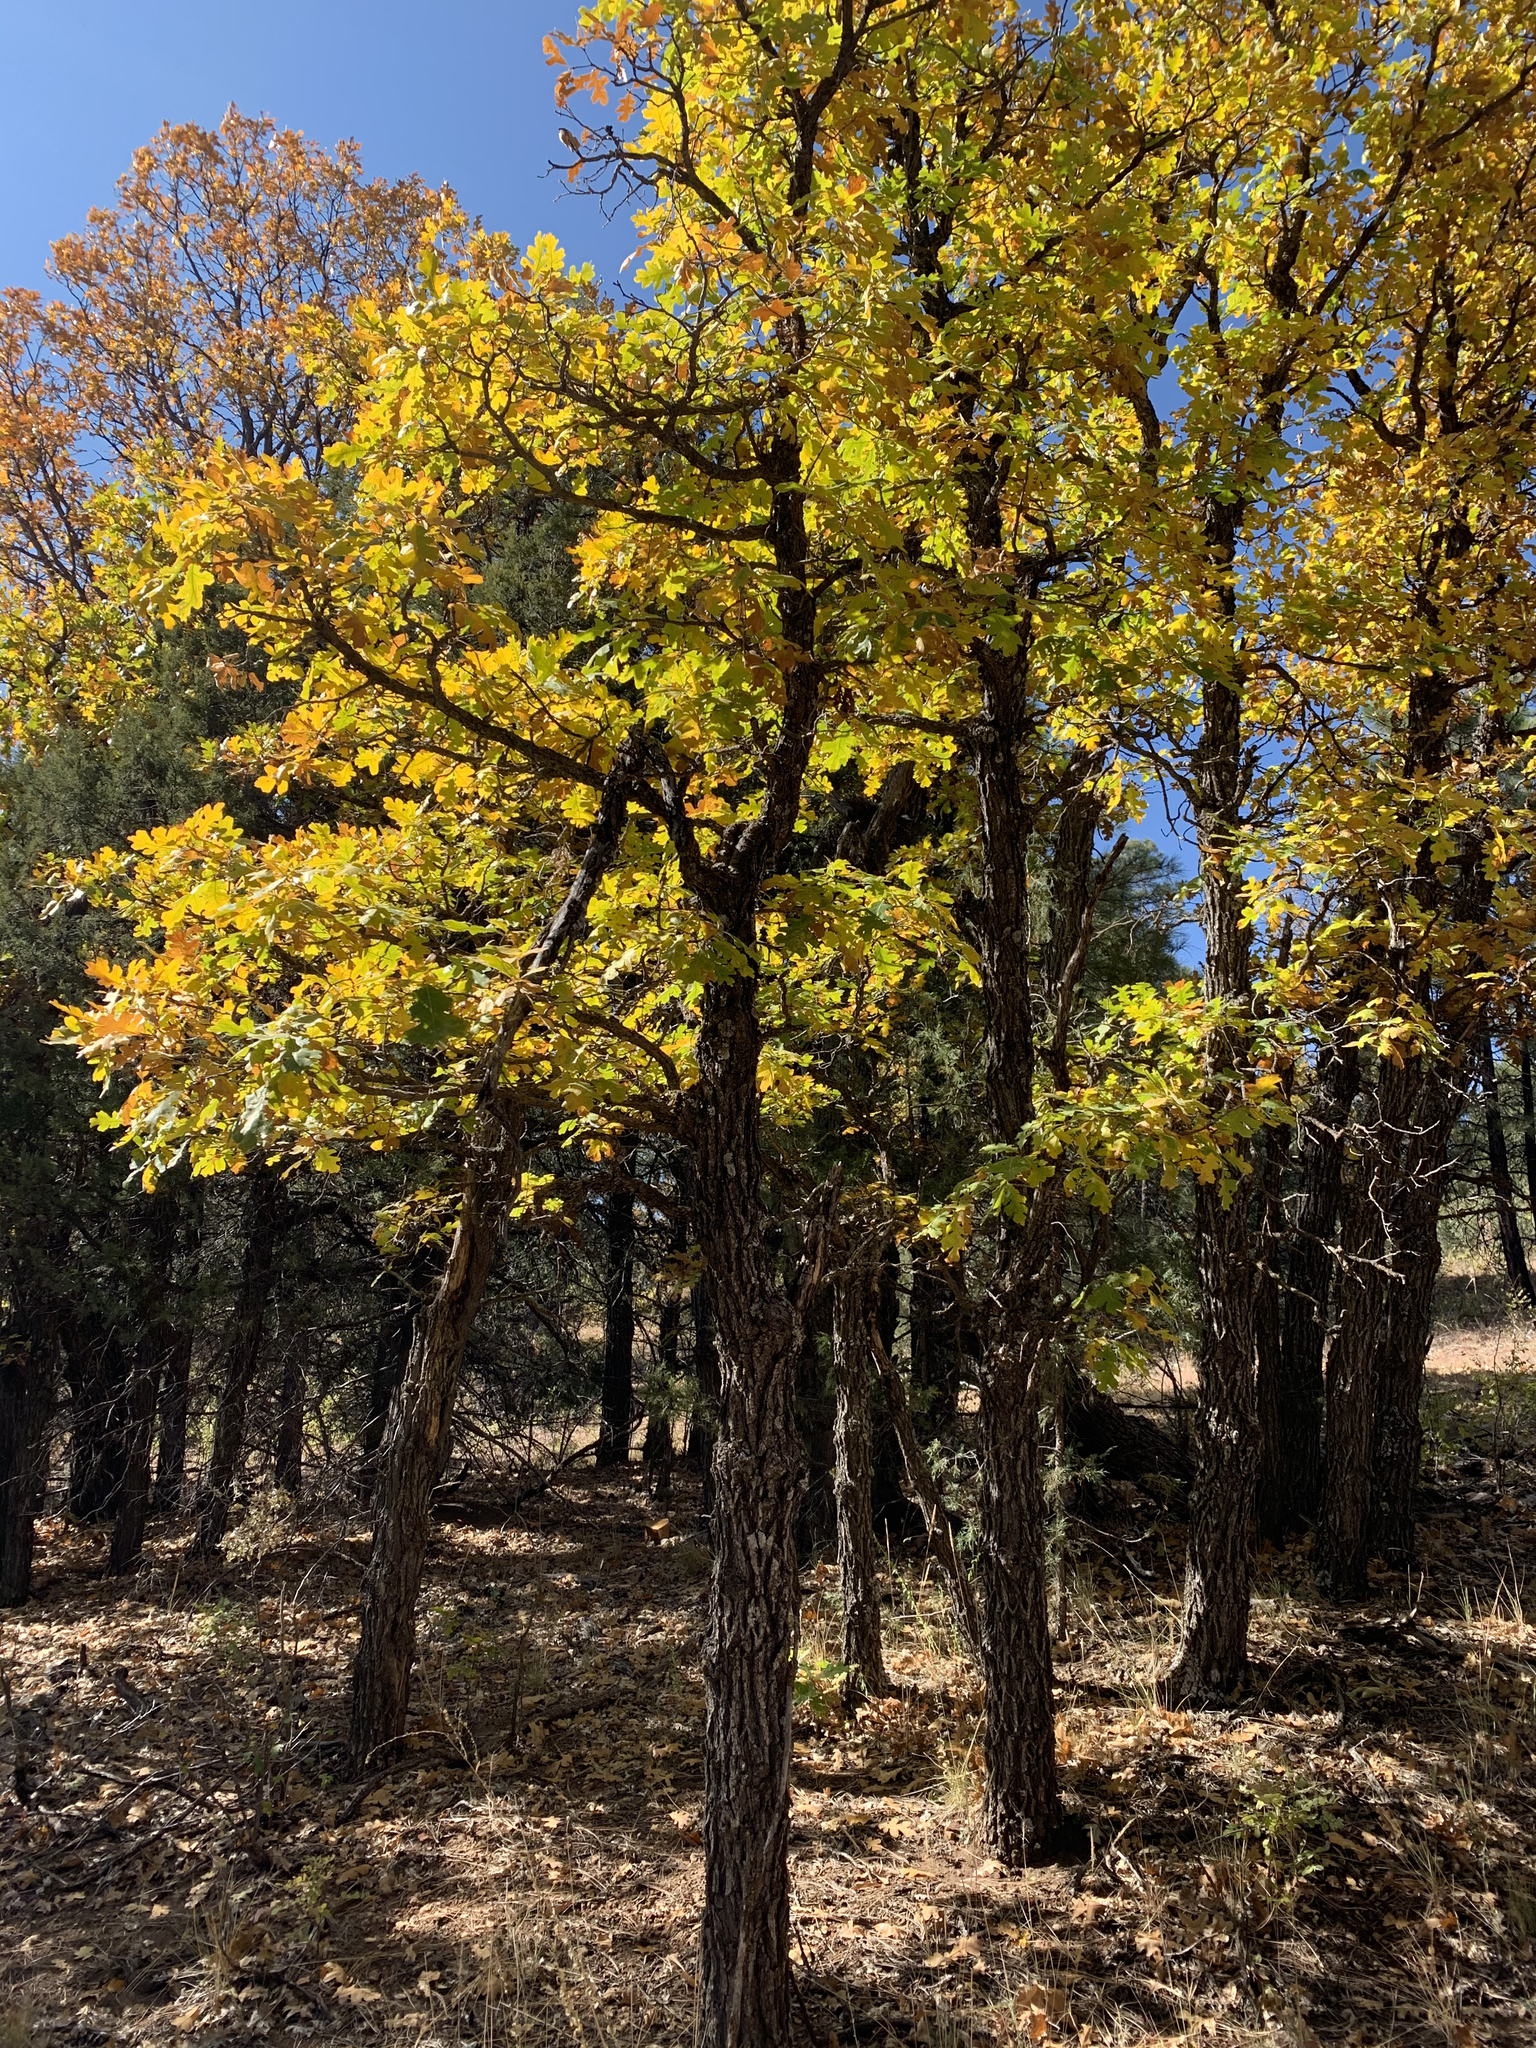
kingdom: Plantae
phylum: Tracheophyta
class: Magnoliopsida
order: Fagales
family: Fagaceae
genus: Quercus
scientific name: Quercus gambelii
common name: Gambel oak
